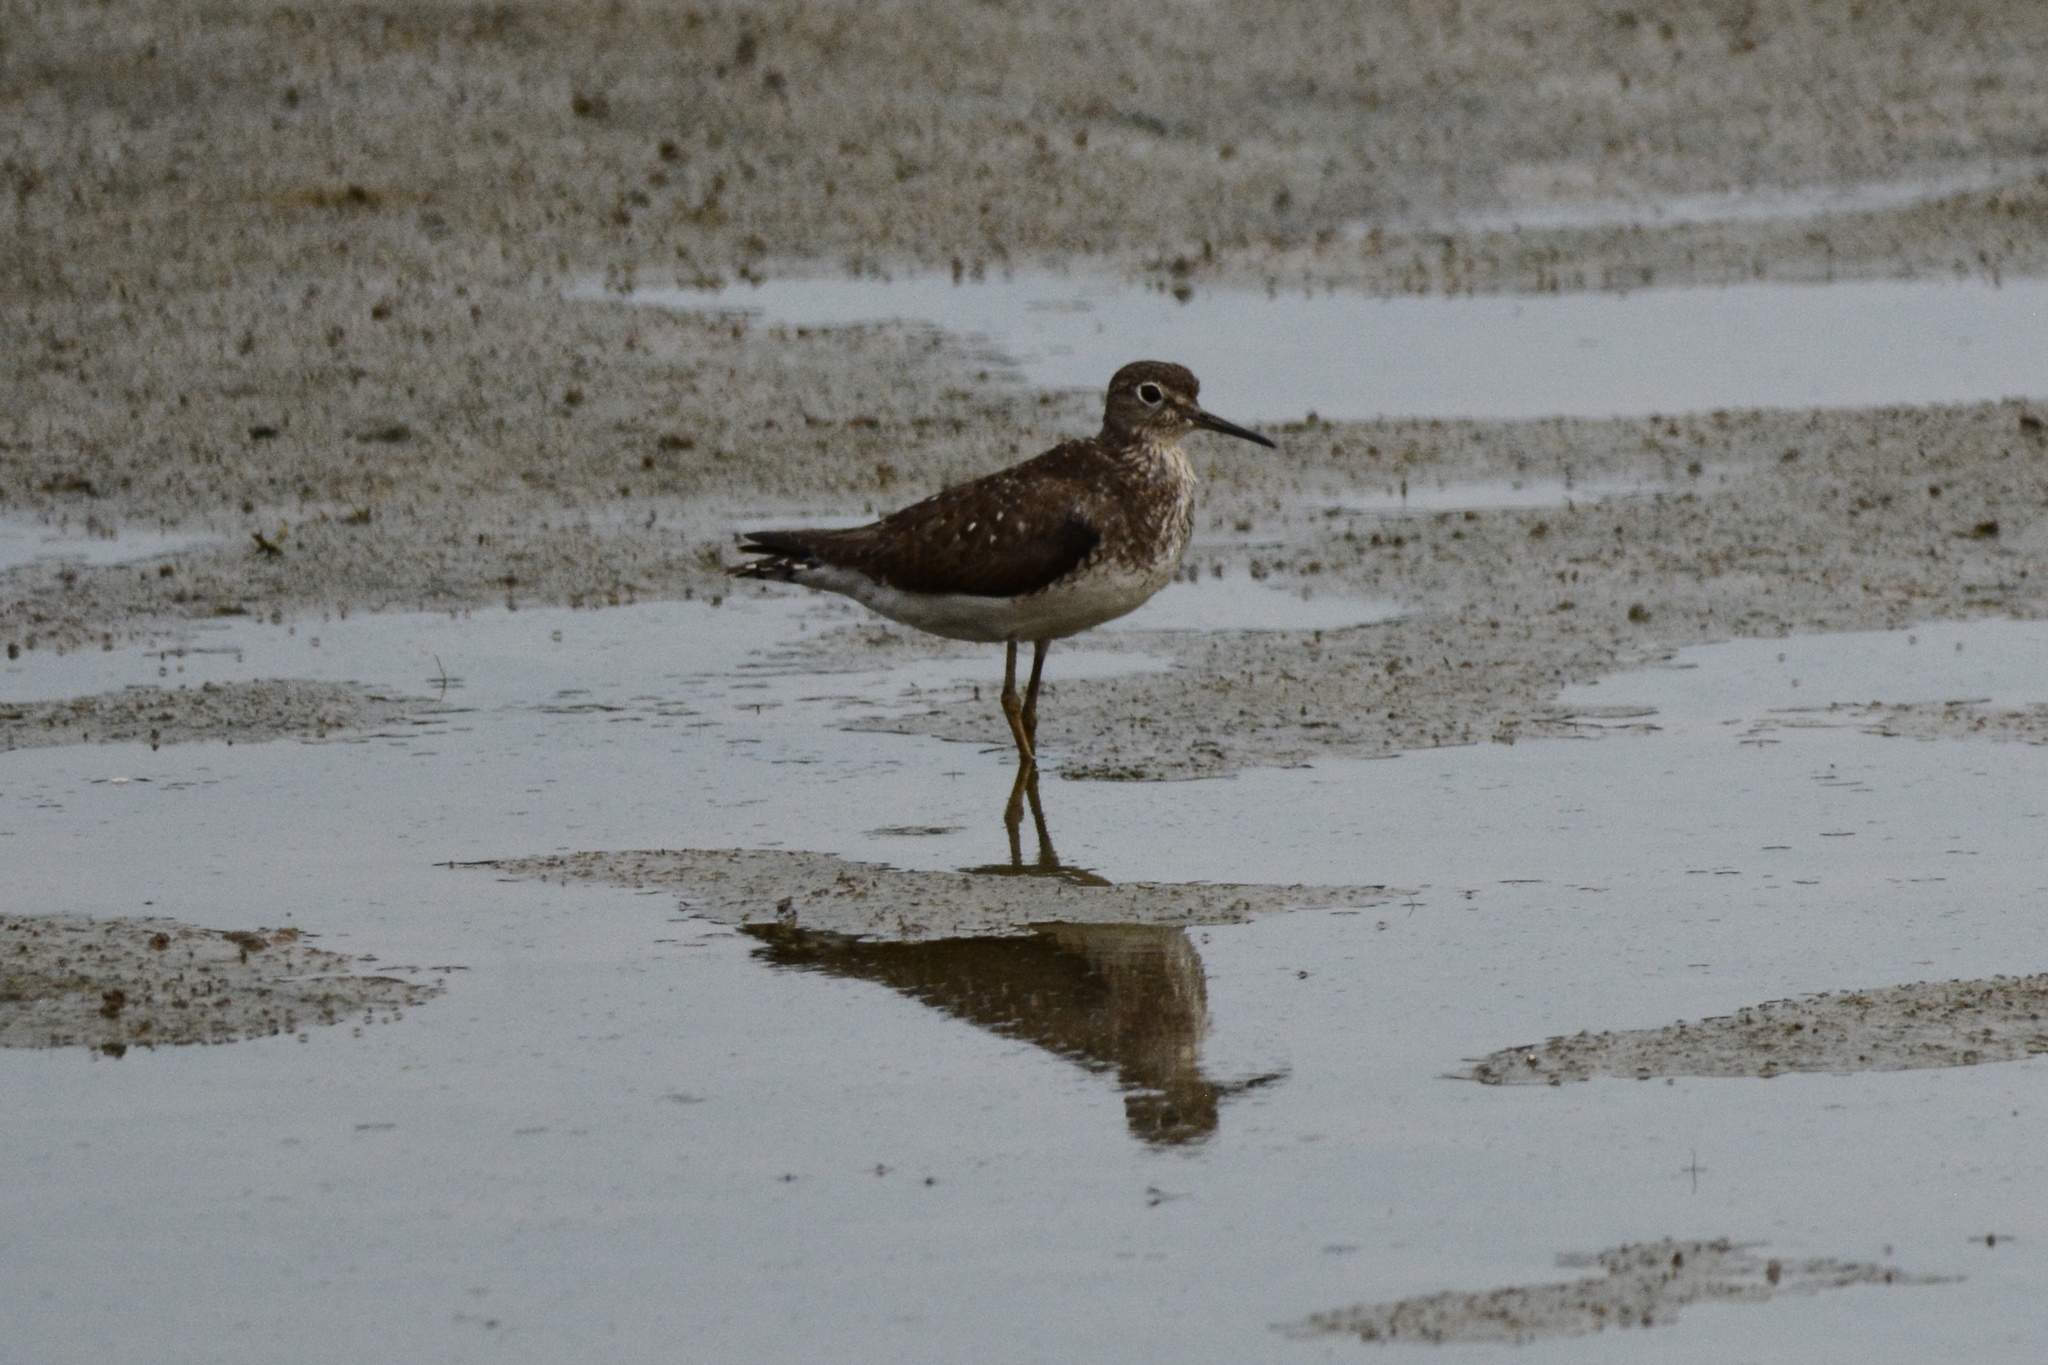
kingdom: Animalia
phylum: Chordata
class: Aves
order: Charadriiformes
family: Scolopacidae
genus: Tringa
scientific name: Tringa solitaria
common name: Solitary sandpiper
